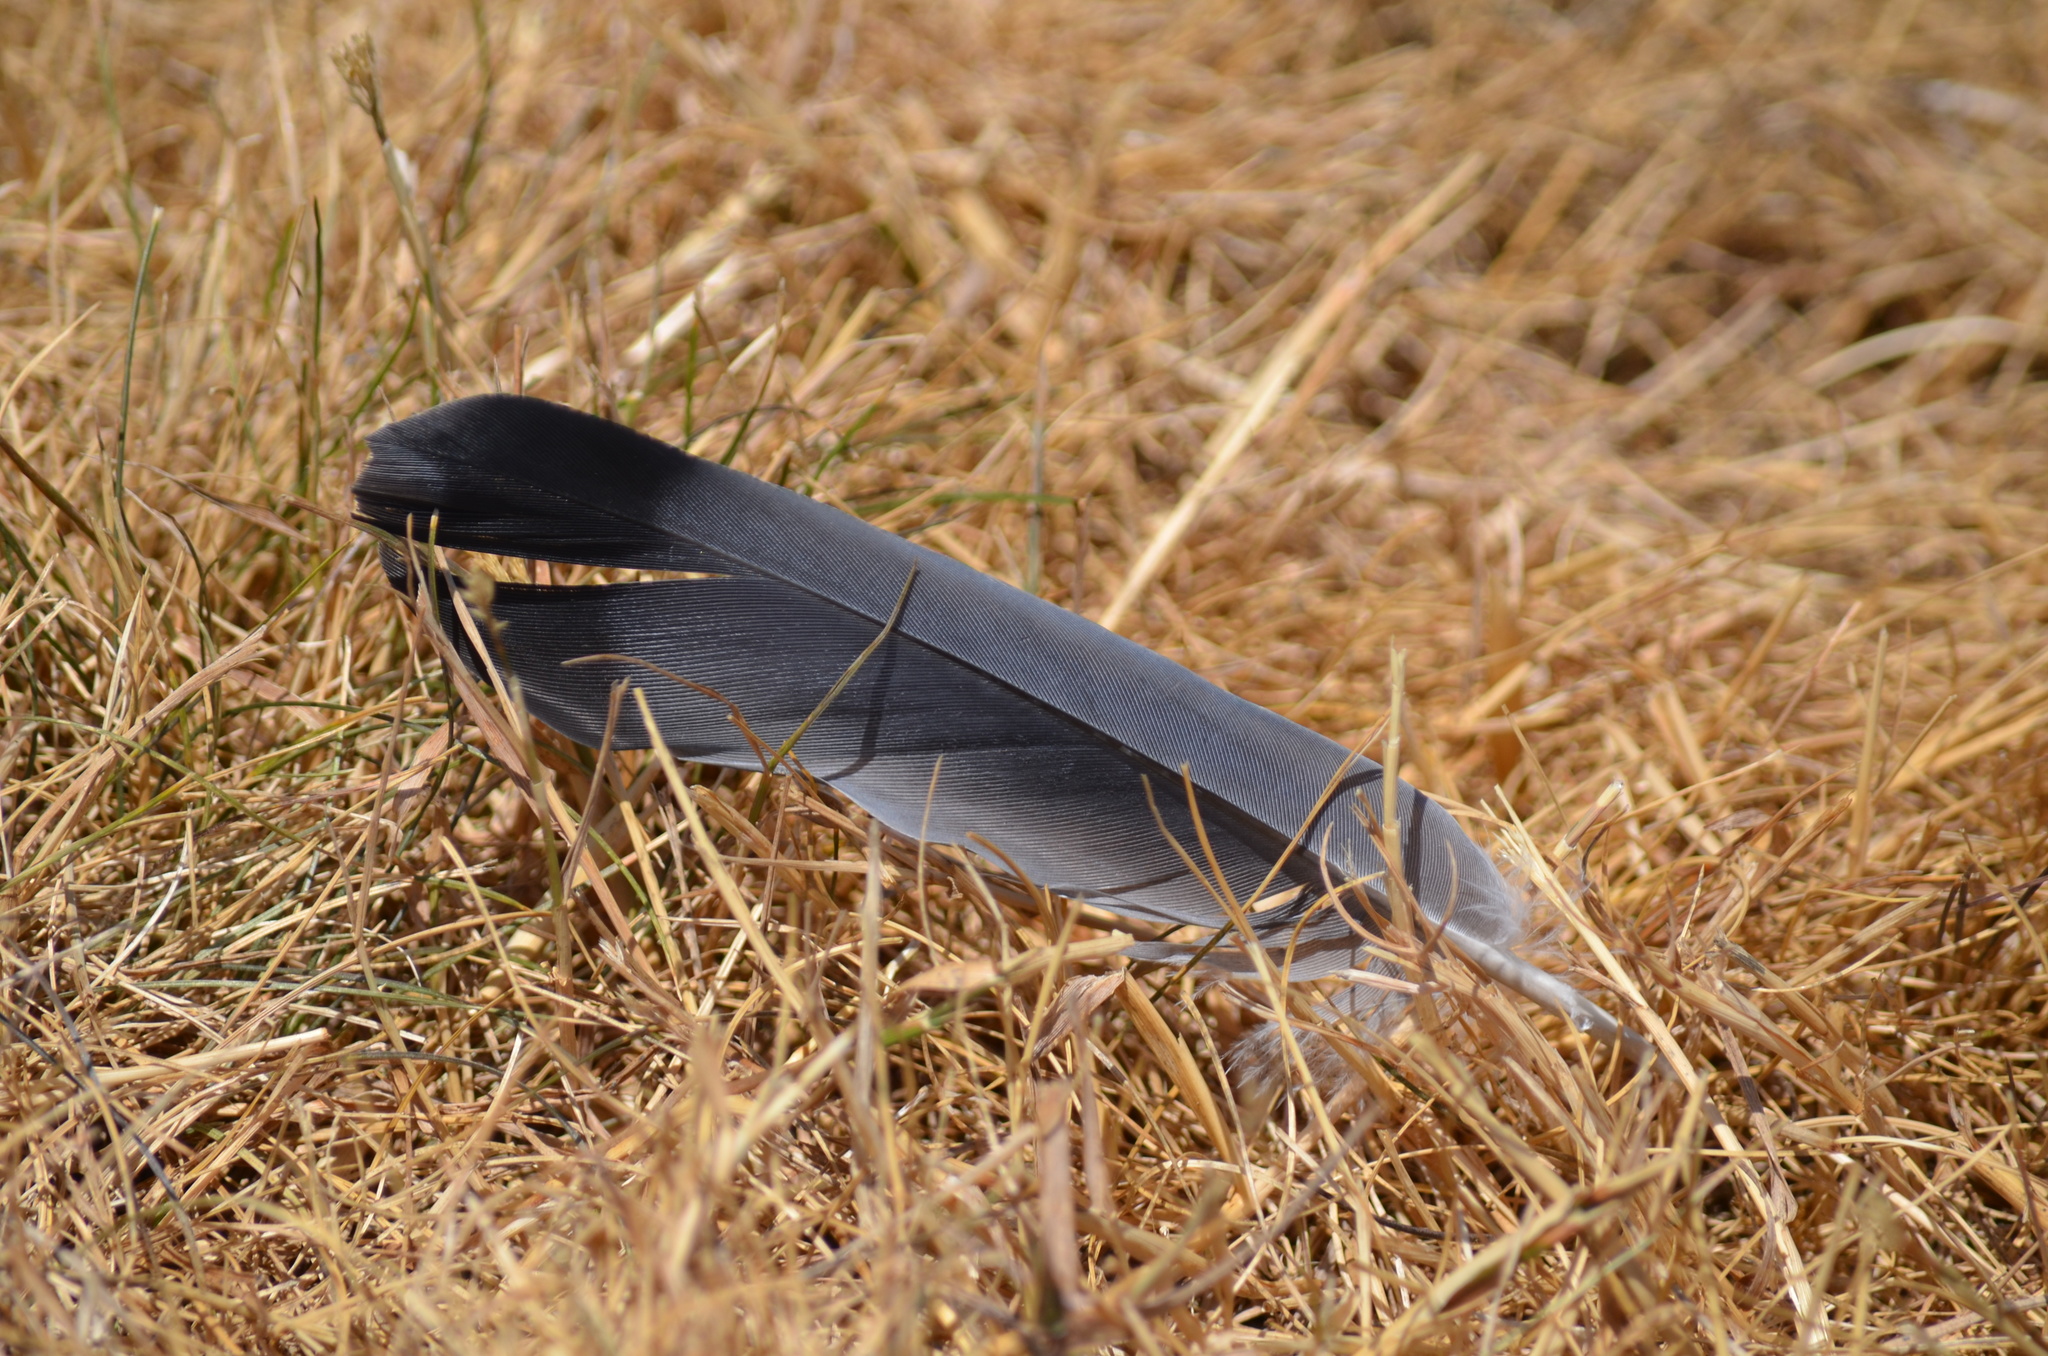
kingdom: Animalia
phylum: Chordata
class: Aves
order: Columbiformes
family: Columbidae
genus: Columba
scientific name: Columba livia
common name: Rock pigeon
